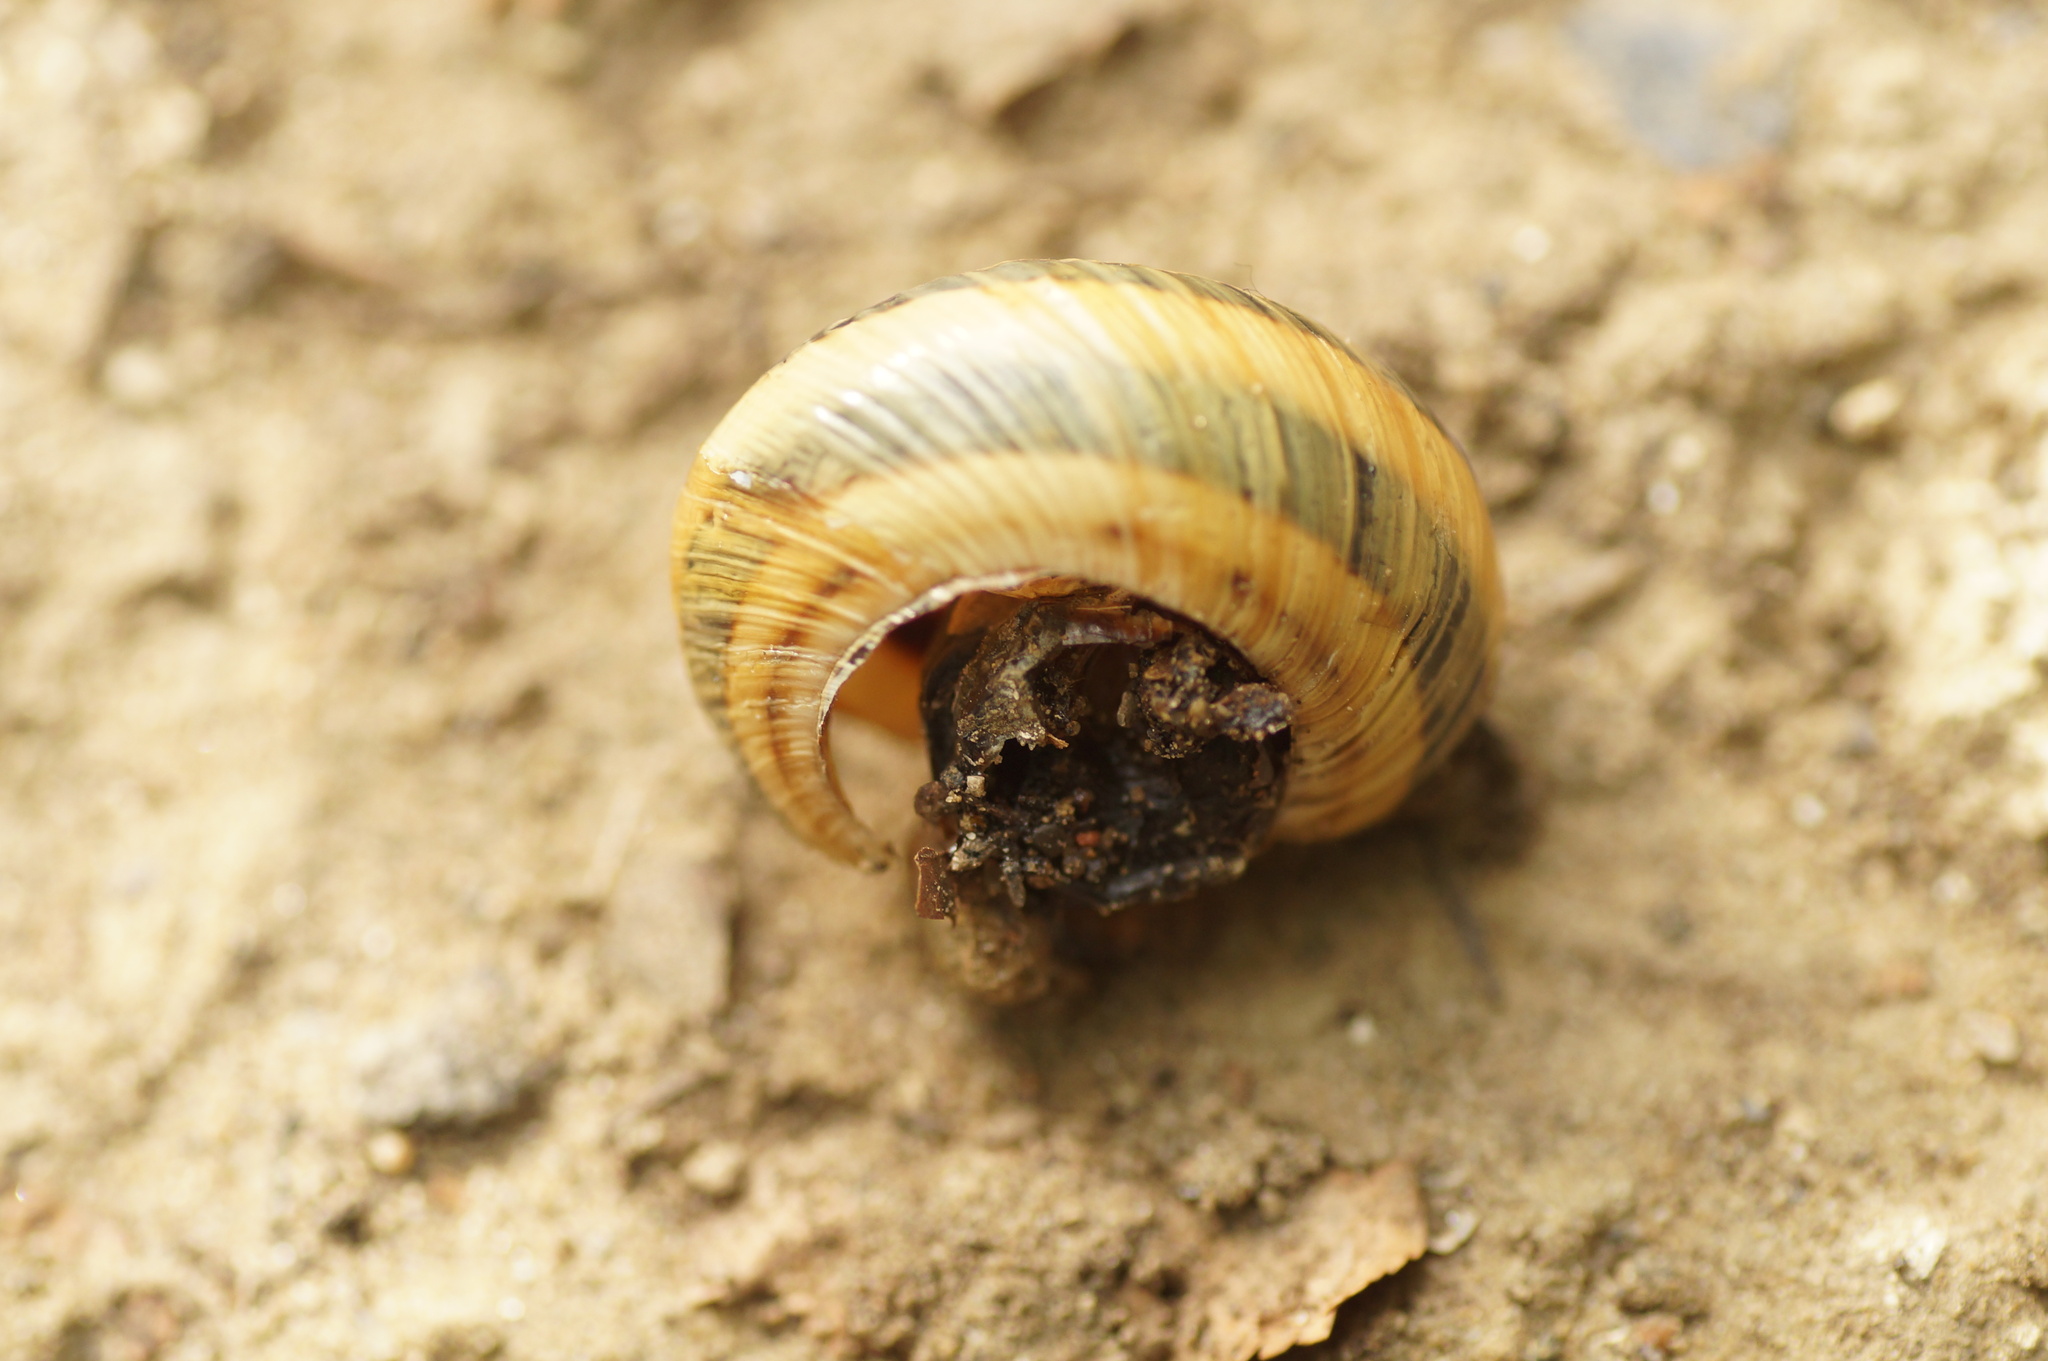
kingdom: Animalia
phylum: Mollusca
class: Gastropoda
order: Stylommatophora
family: Helicidae
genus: Caucasotachea
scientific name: Caucasotachea atrolabiata
